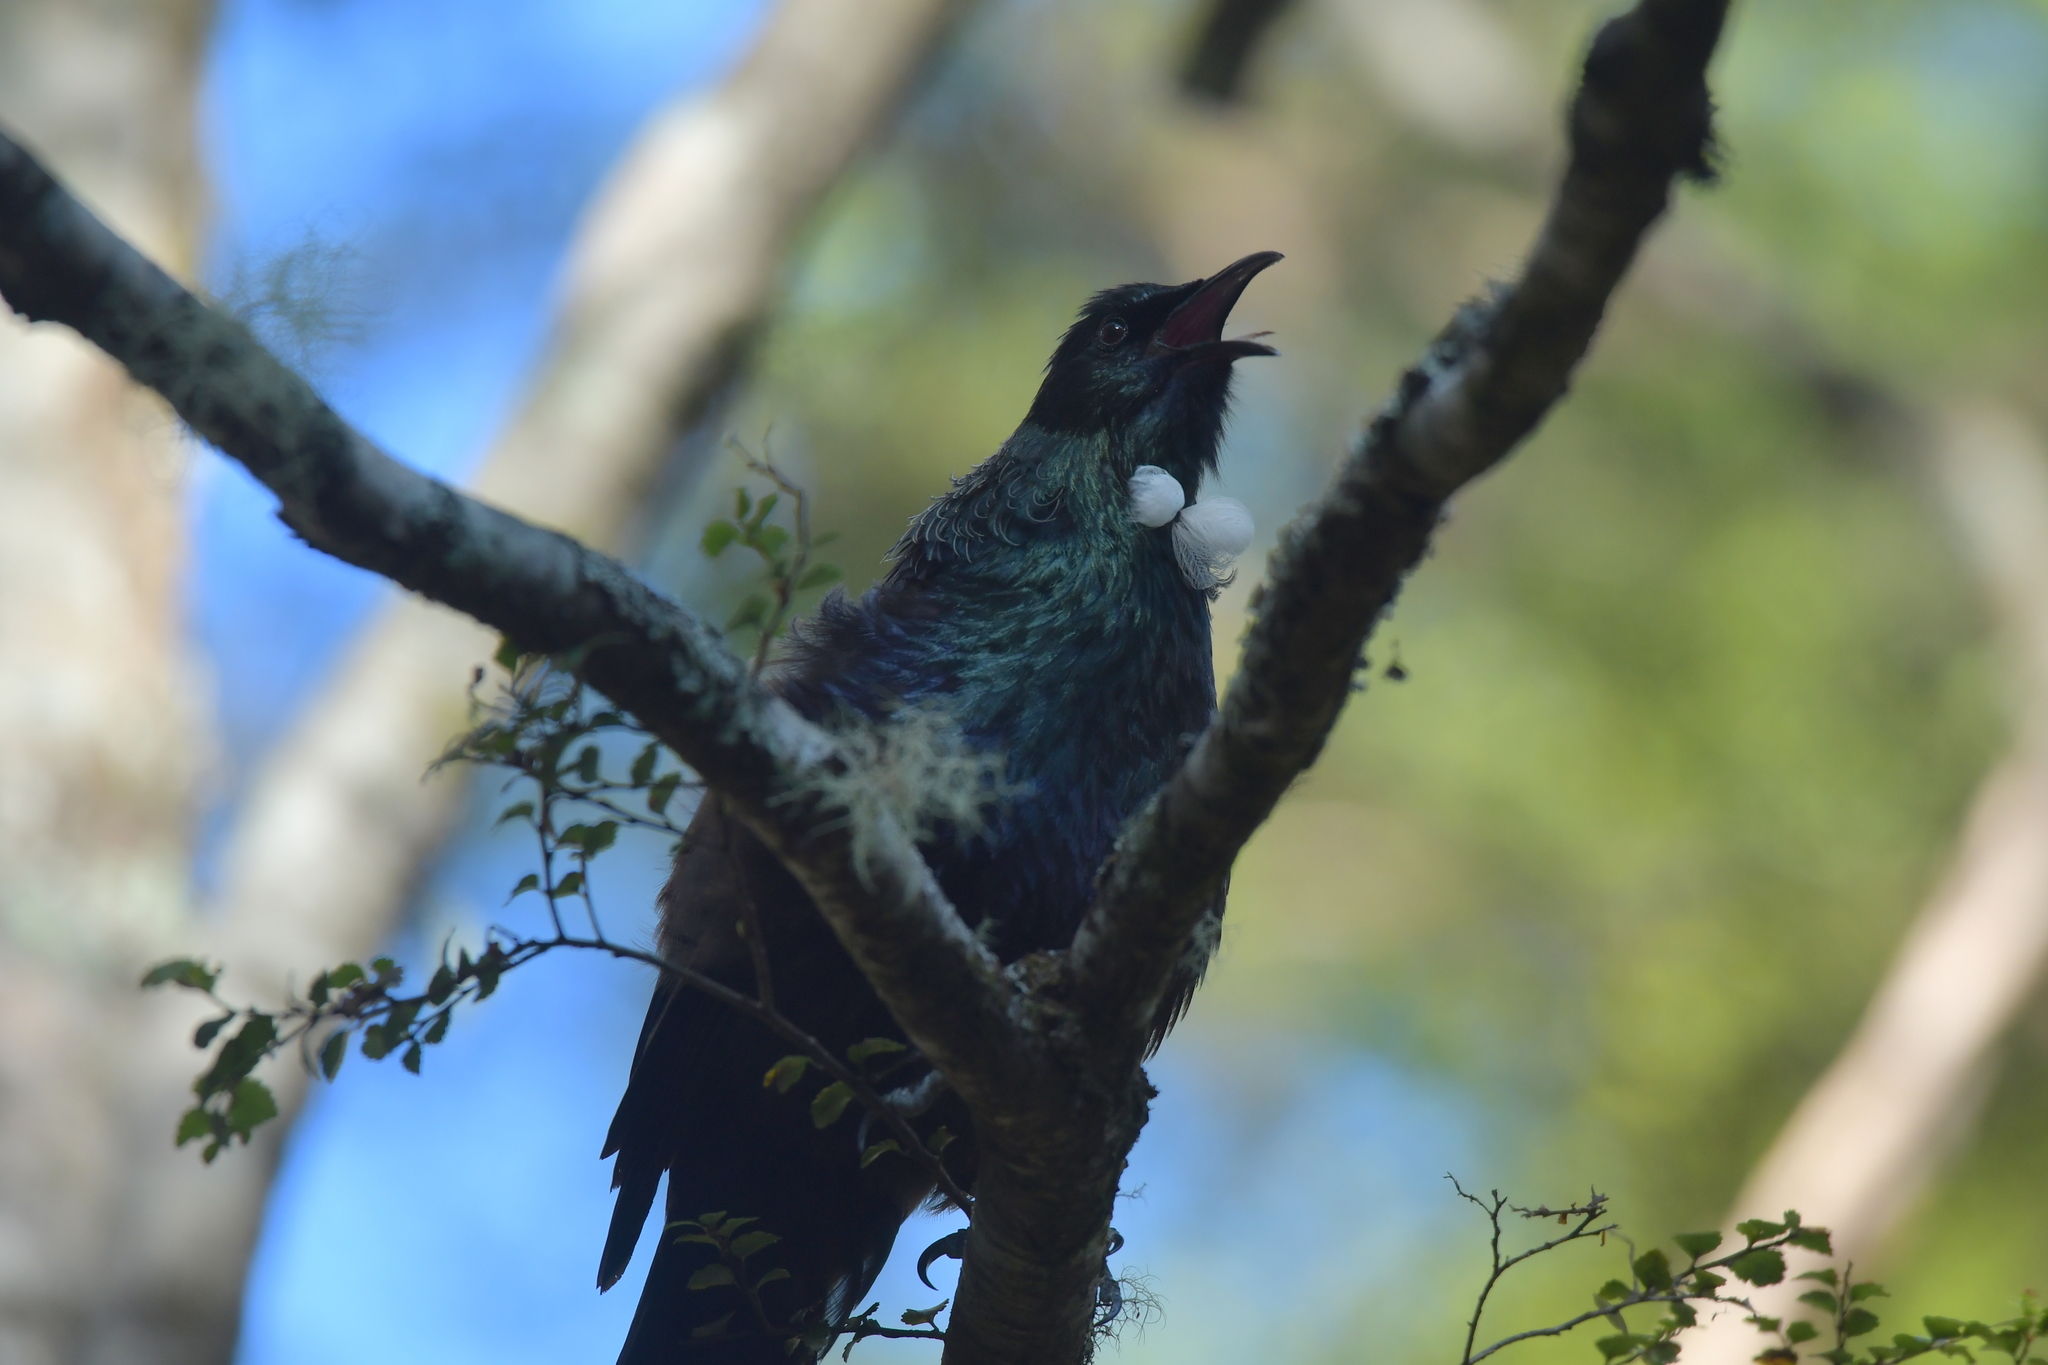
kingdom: Animalia
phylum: Chordata
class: Aves
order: Passeriformes
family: Meliphagidae
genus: Prosthemadera
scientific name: Prosthemadera novaeseelandiae
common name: Tui
